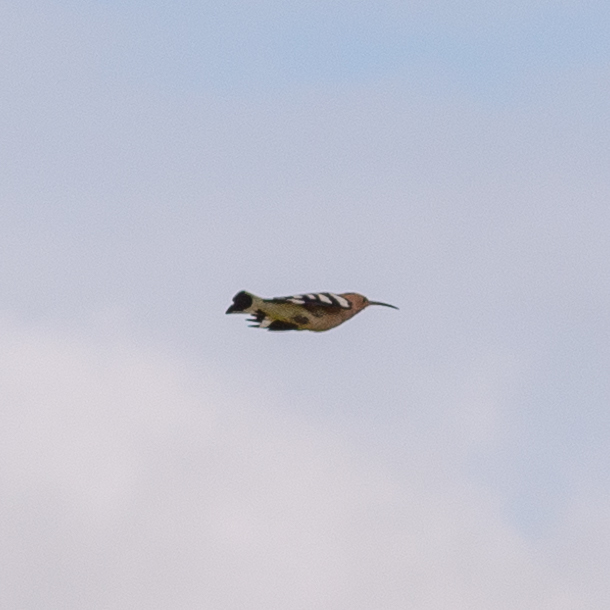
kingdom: Animalia
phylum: Chordata
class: Aves
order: Bucerotiformes
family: Upupidae
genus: Upupa
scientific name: Upupa epops
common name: Eurasian hoopoe
